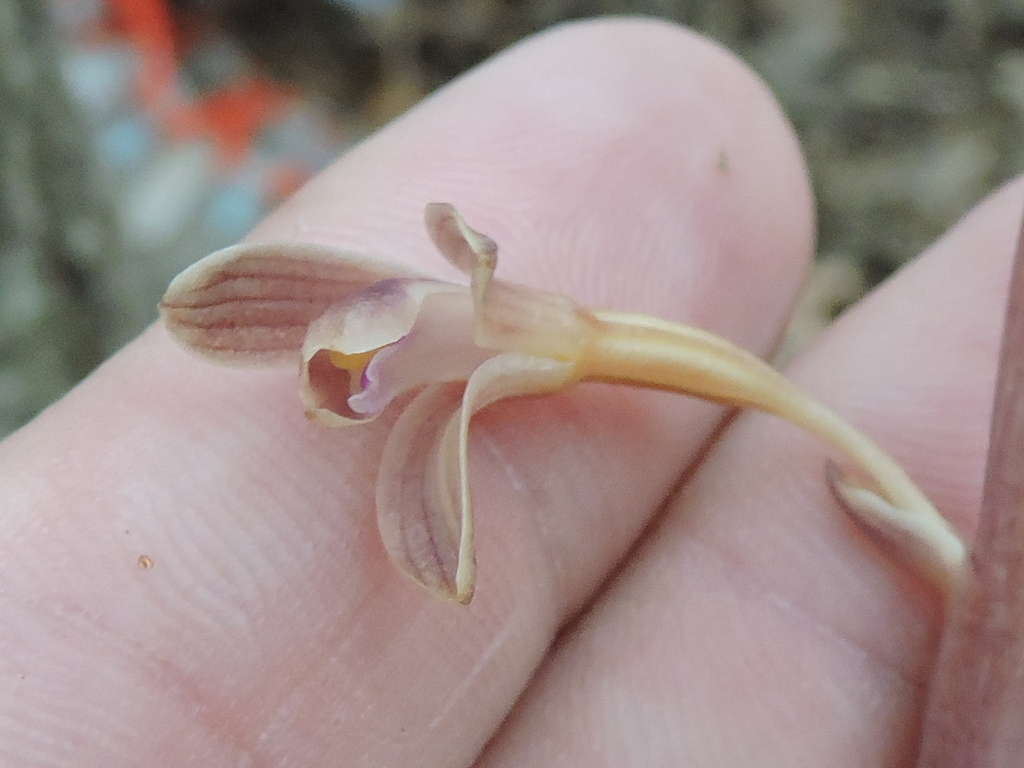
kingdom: Plantae
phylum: Tracheophyta
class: Liliopsida
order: Asparagales
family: Orchidaceae
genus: Bletia
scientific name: Bletia nitida
